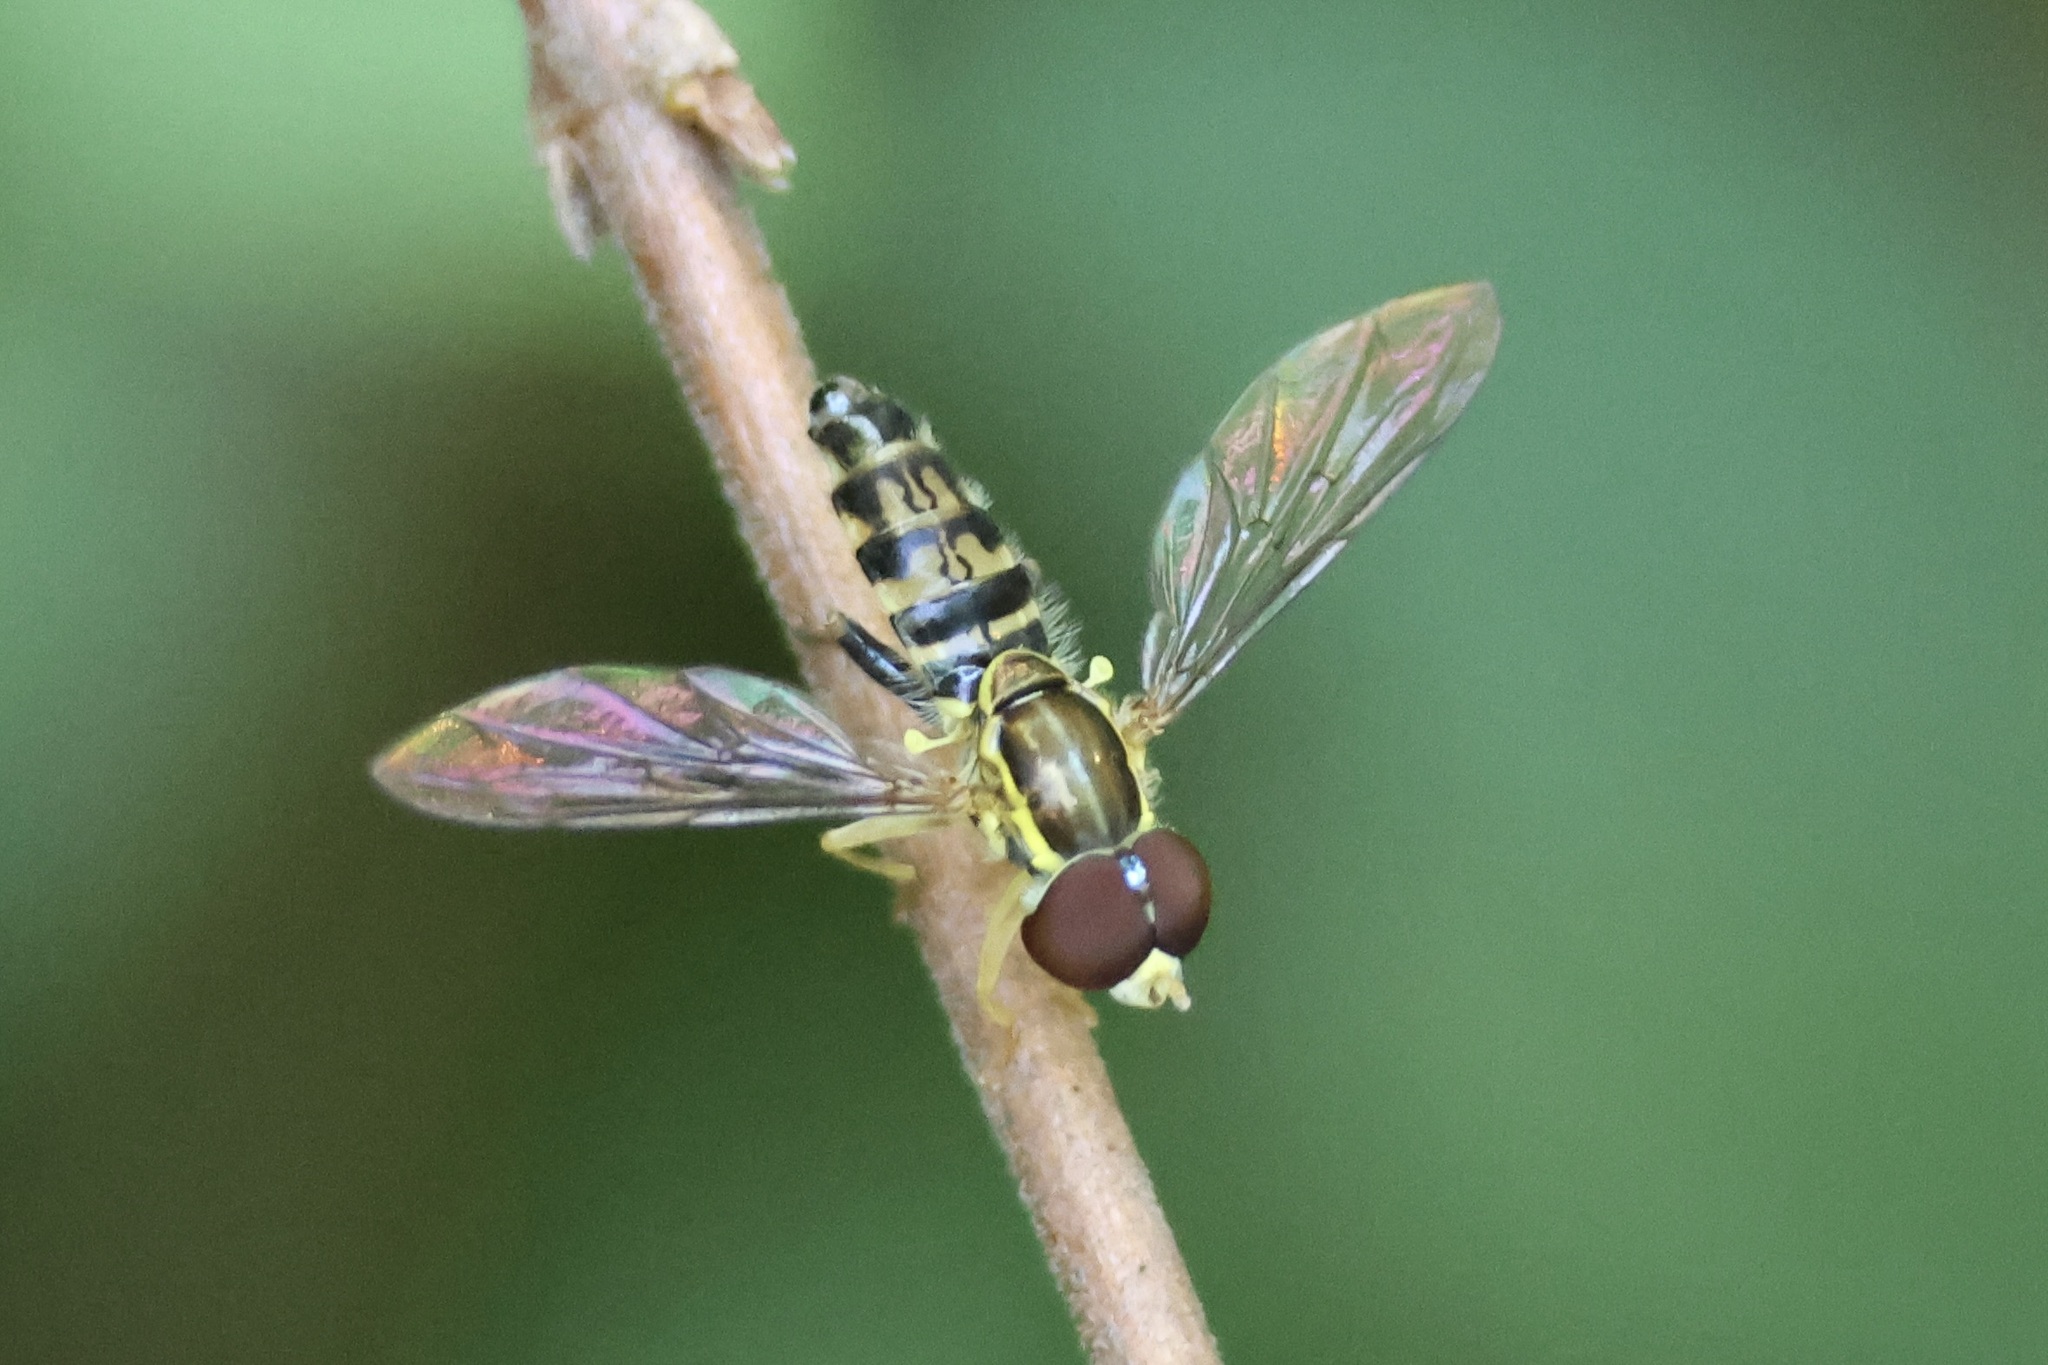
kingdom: Animalia
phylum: Arthropoda
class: Insecta
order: Diptera
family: Syrphidae
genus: Toxomerus
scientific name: Toxomerus geminatus
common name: Eastern calligrapher
